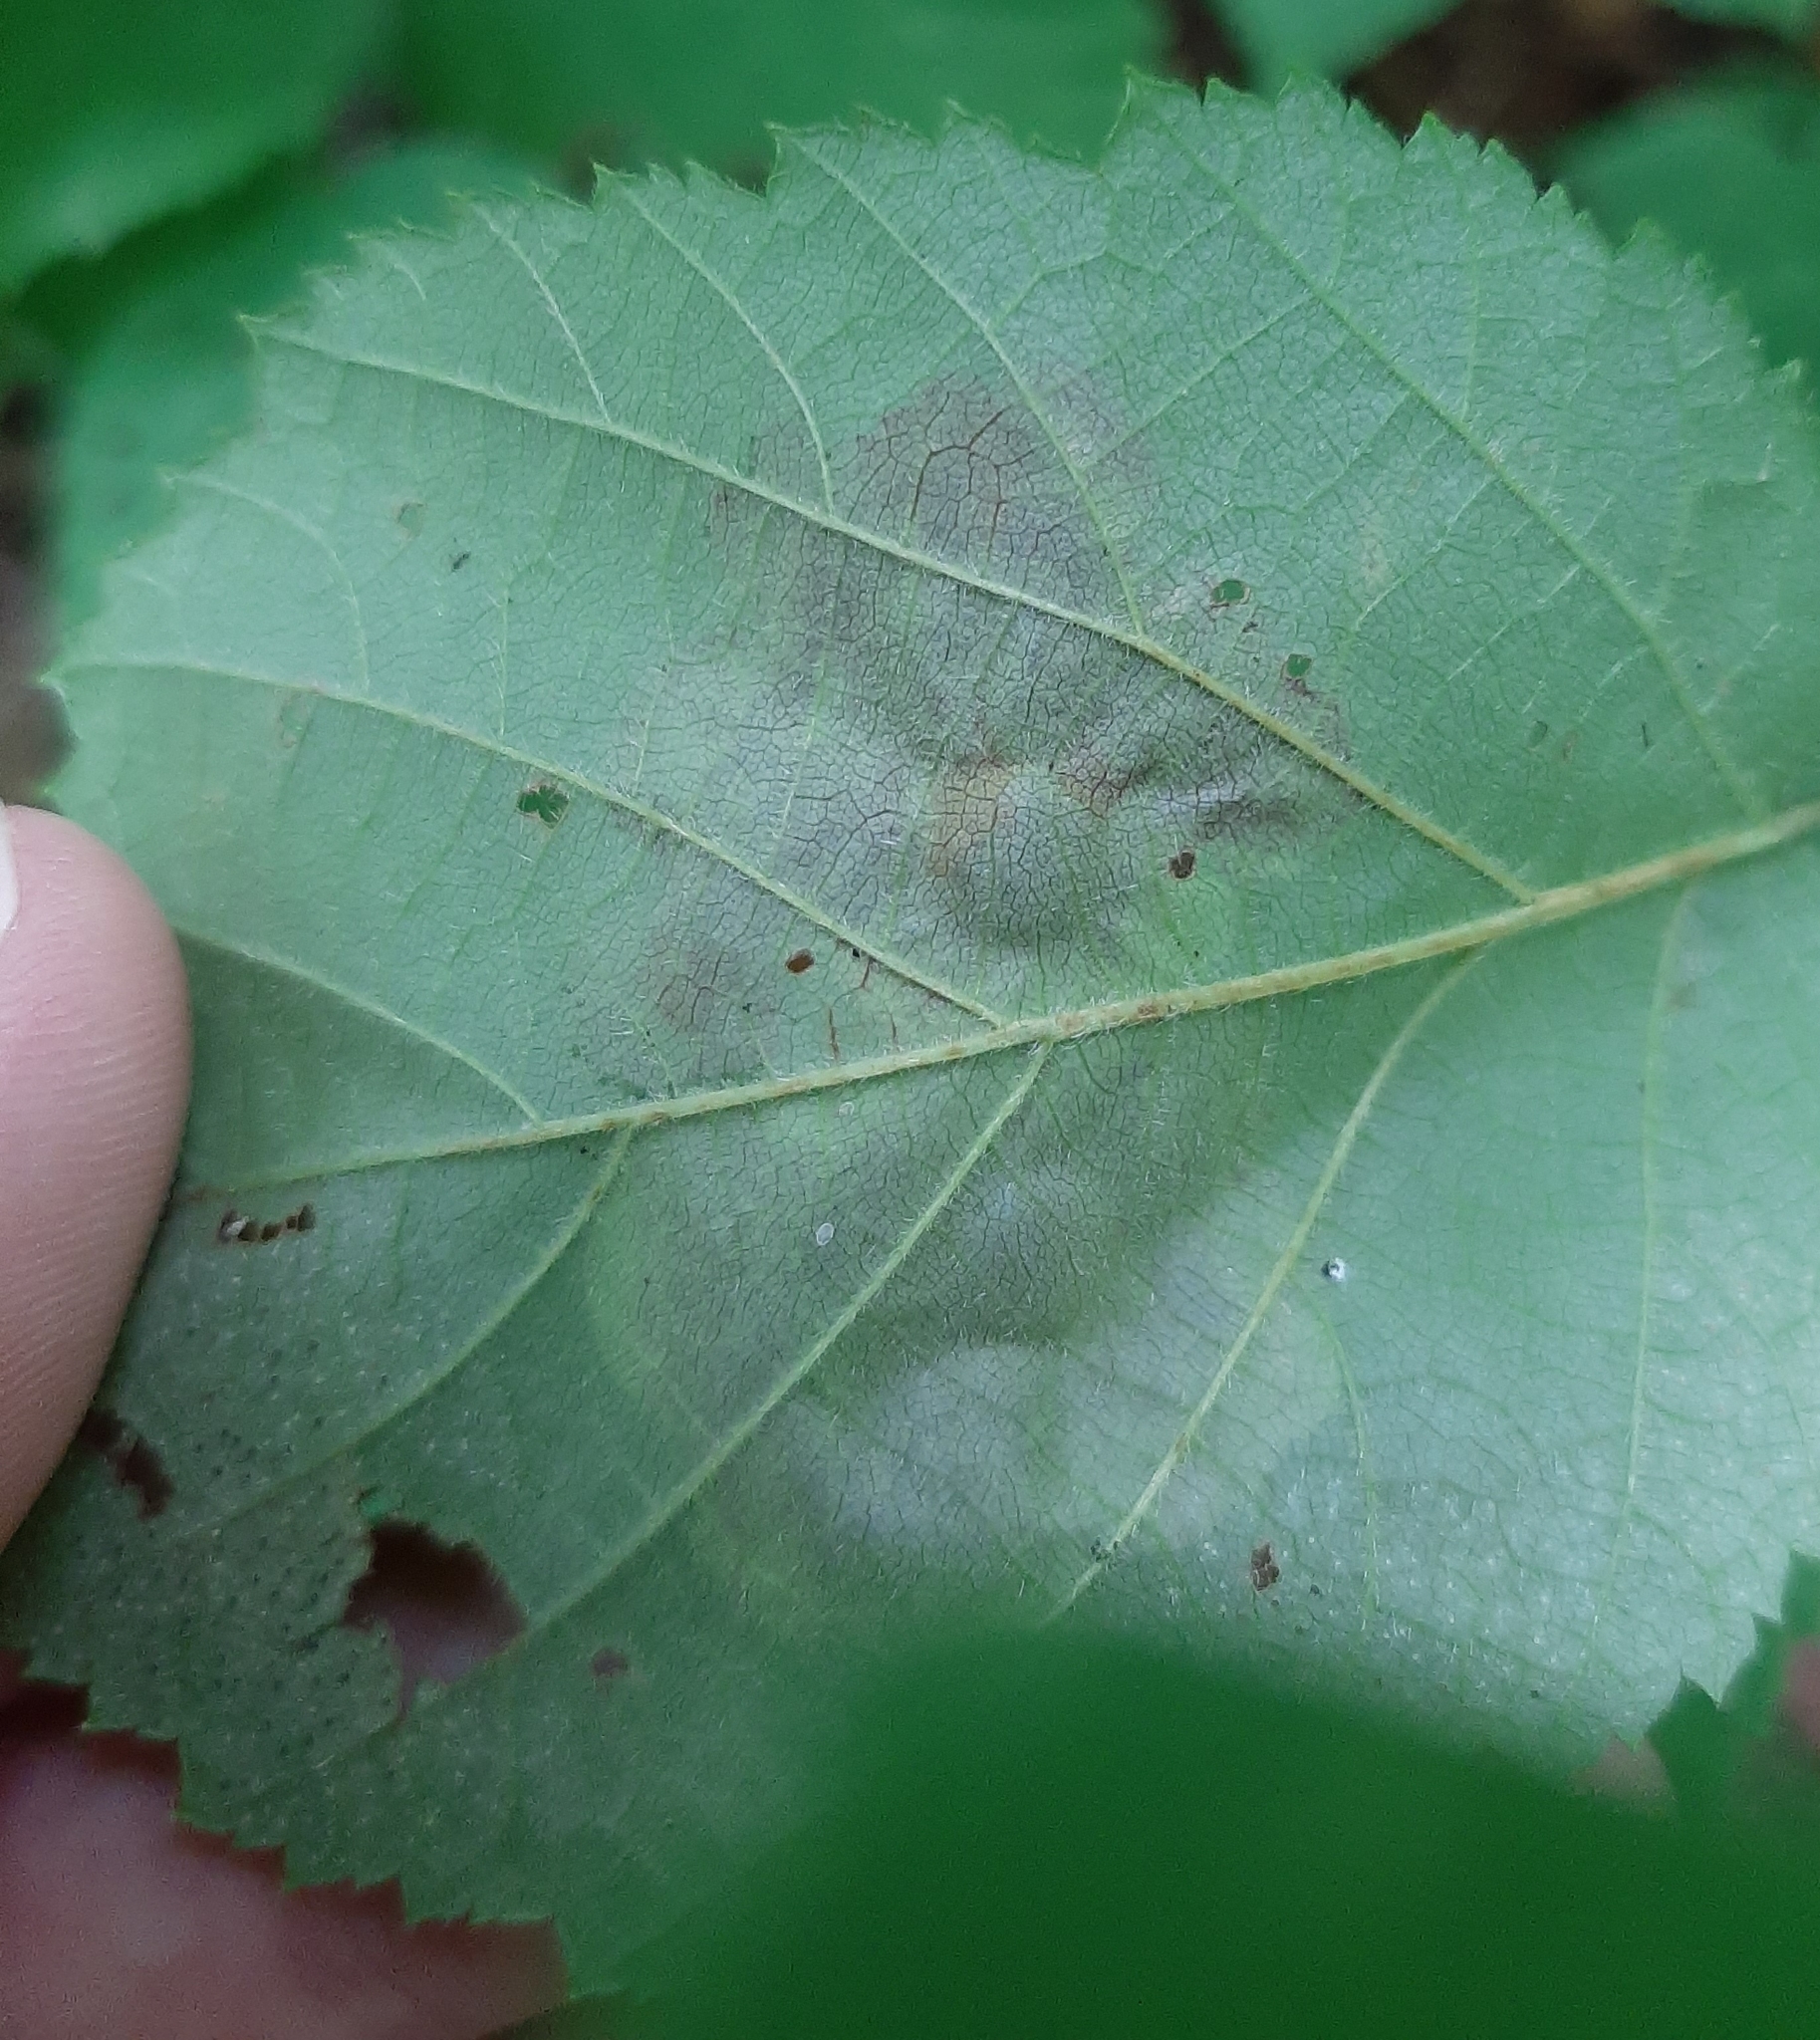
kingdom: Animalia
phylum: Arthropoda
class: Insecta
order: Lepidoptera
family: Gracillariidae
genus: Cameraria
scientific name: Cameraria corylisella
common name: Hazel blotchminer
